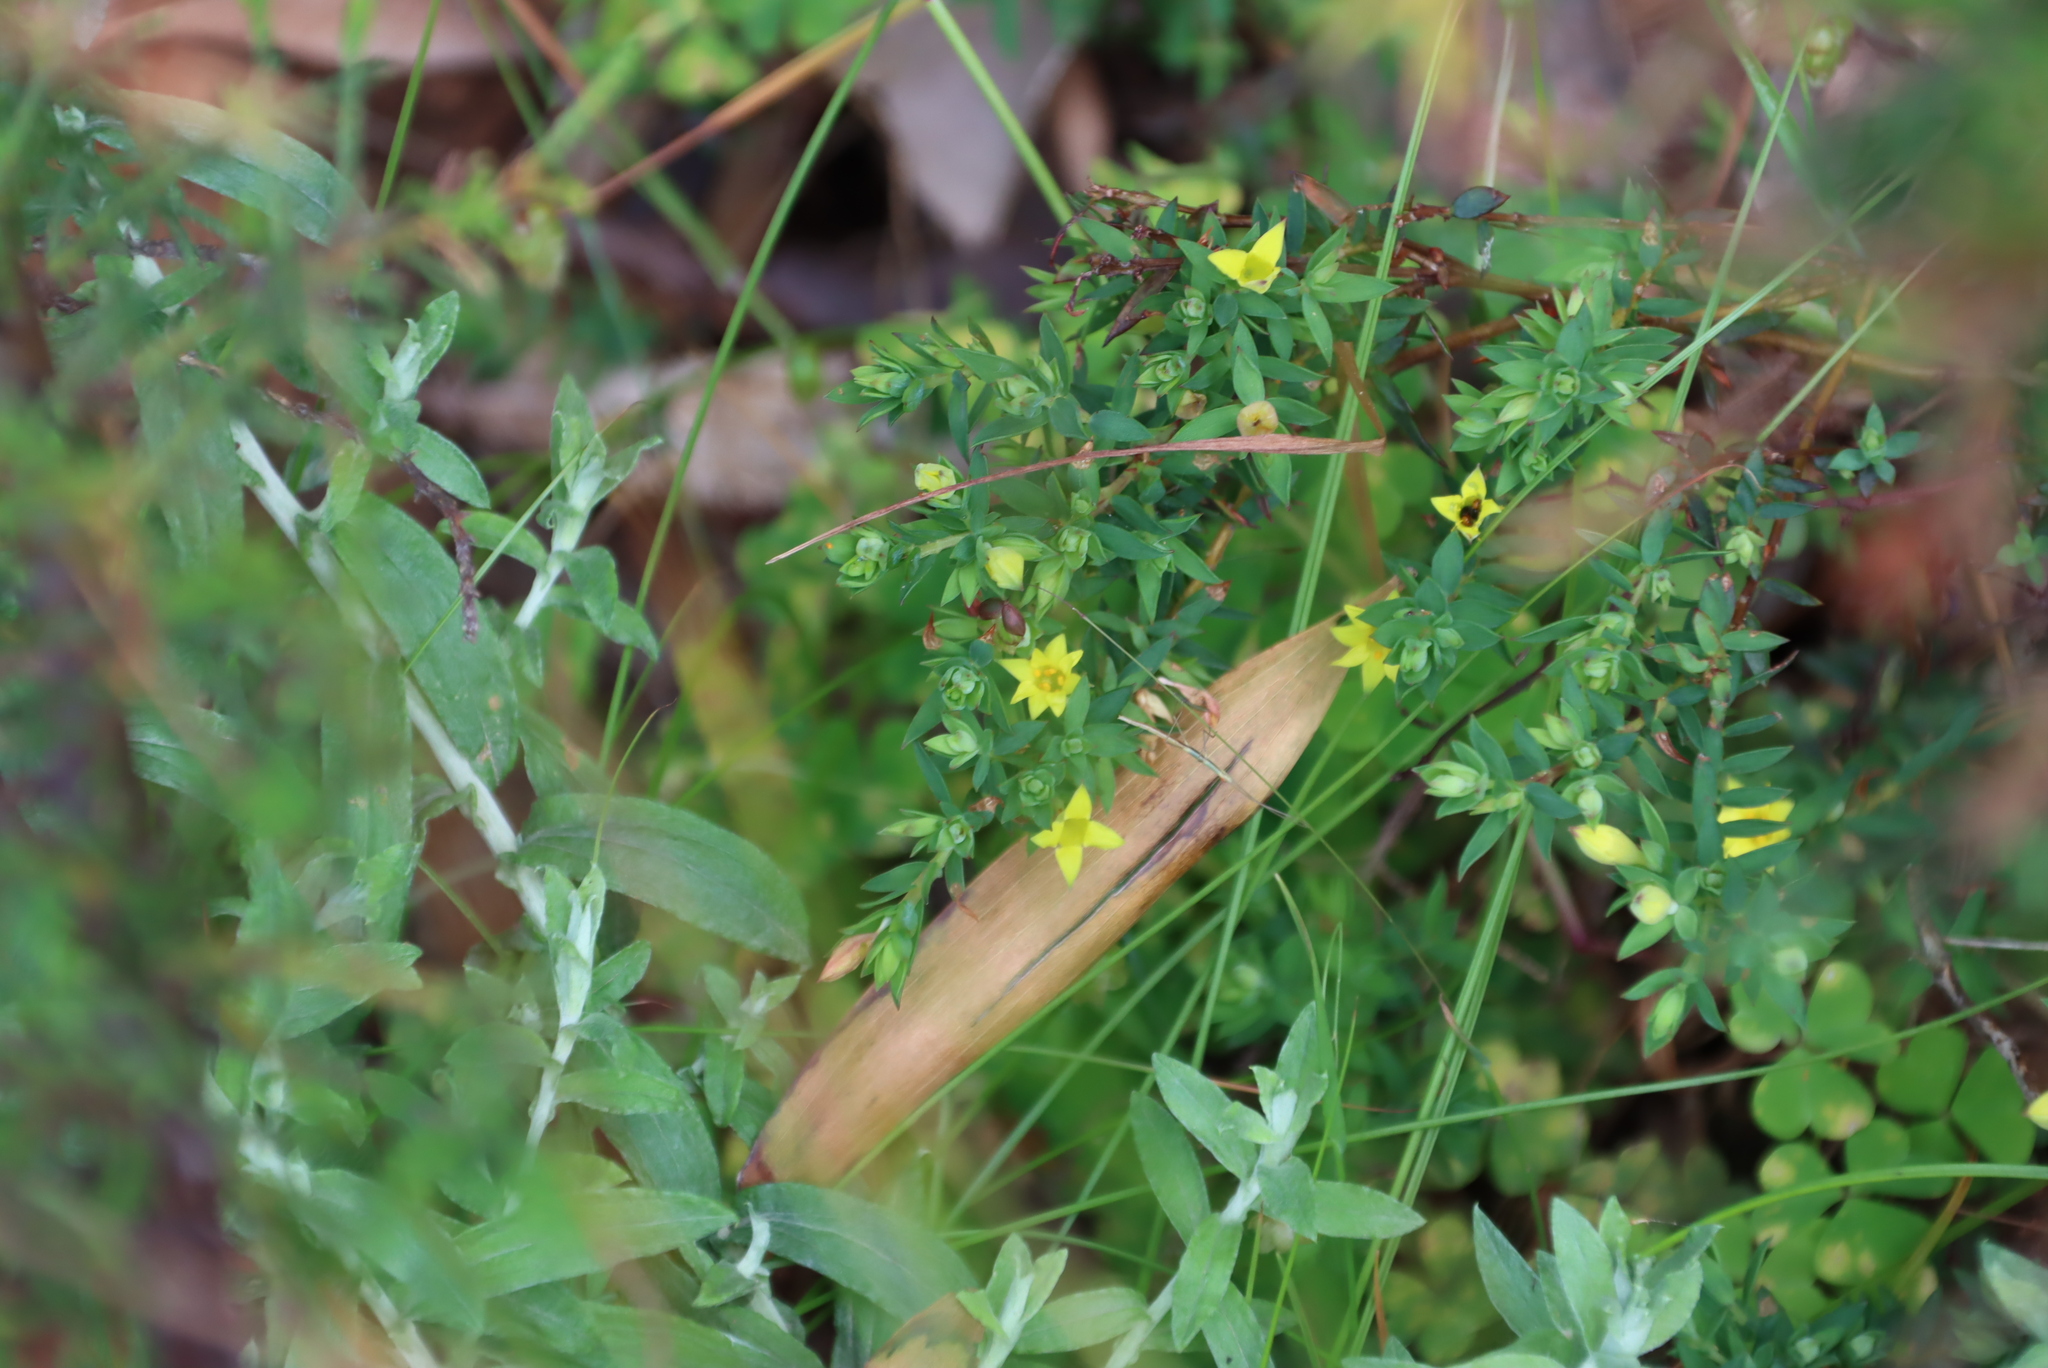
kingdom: Plantae
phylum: Tracheophyta
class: Magnoliopsida
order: Malvales
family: Thymelaeaceae
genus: Gnidia
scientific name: Gnidia juniperifolia
